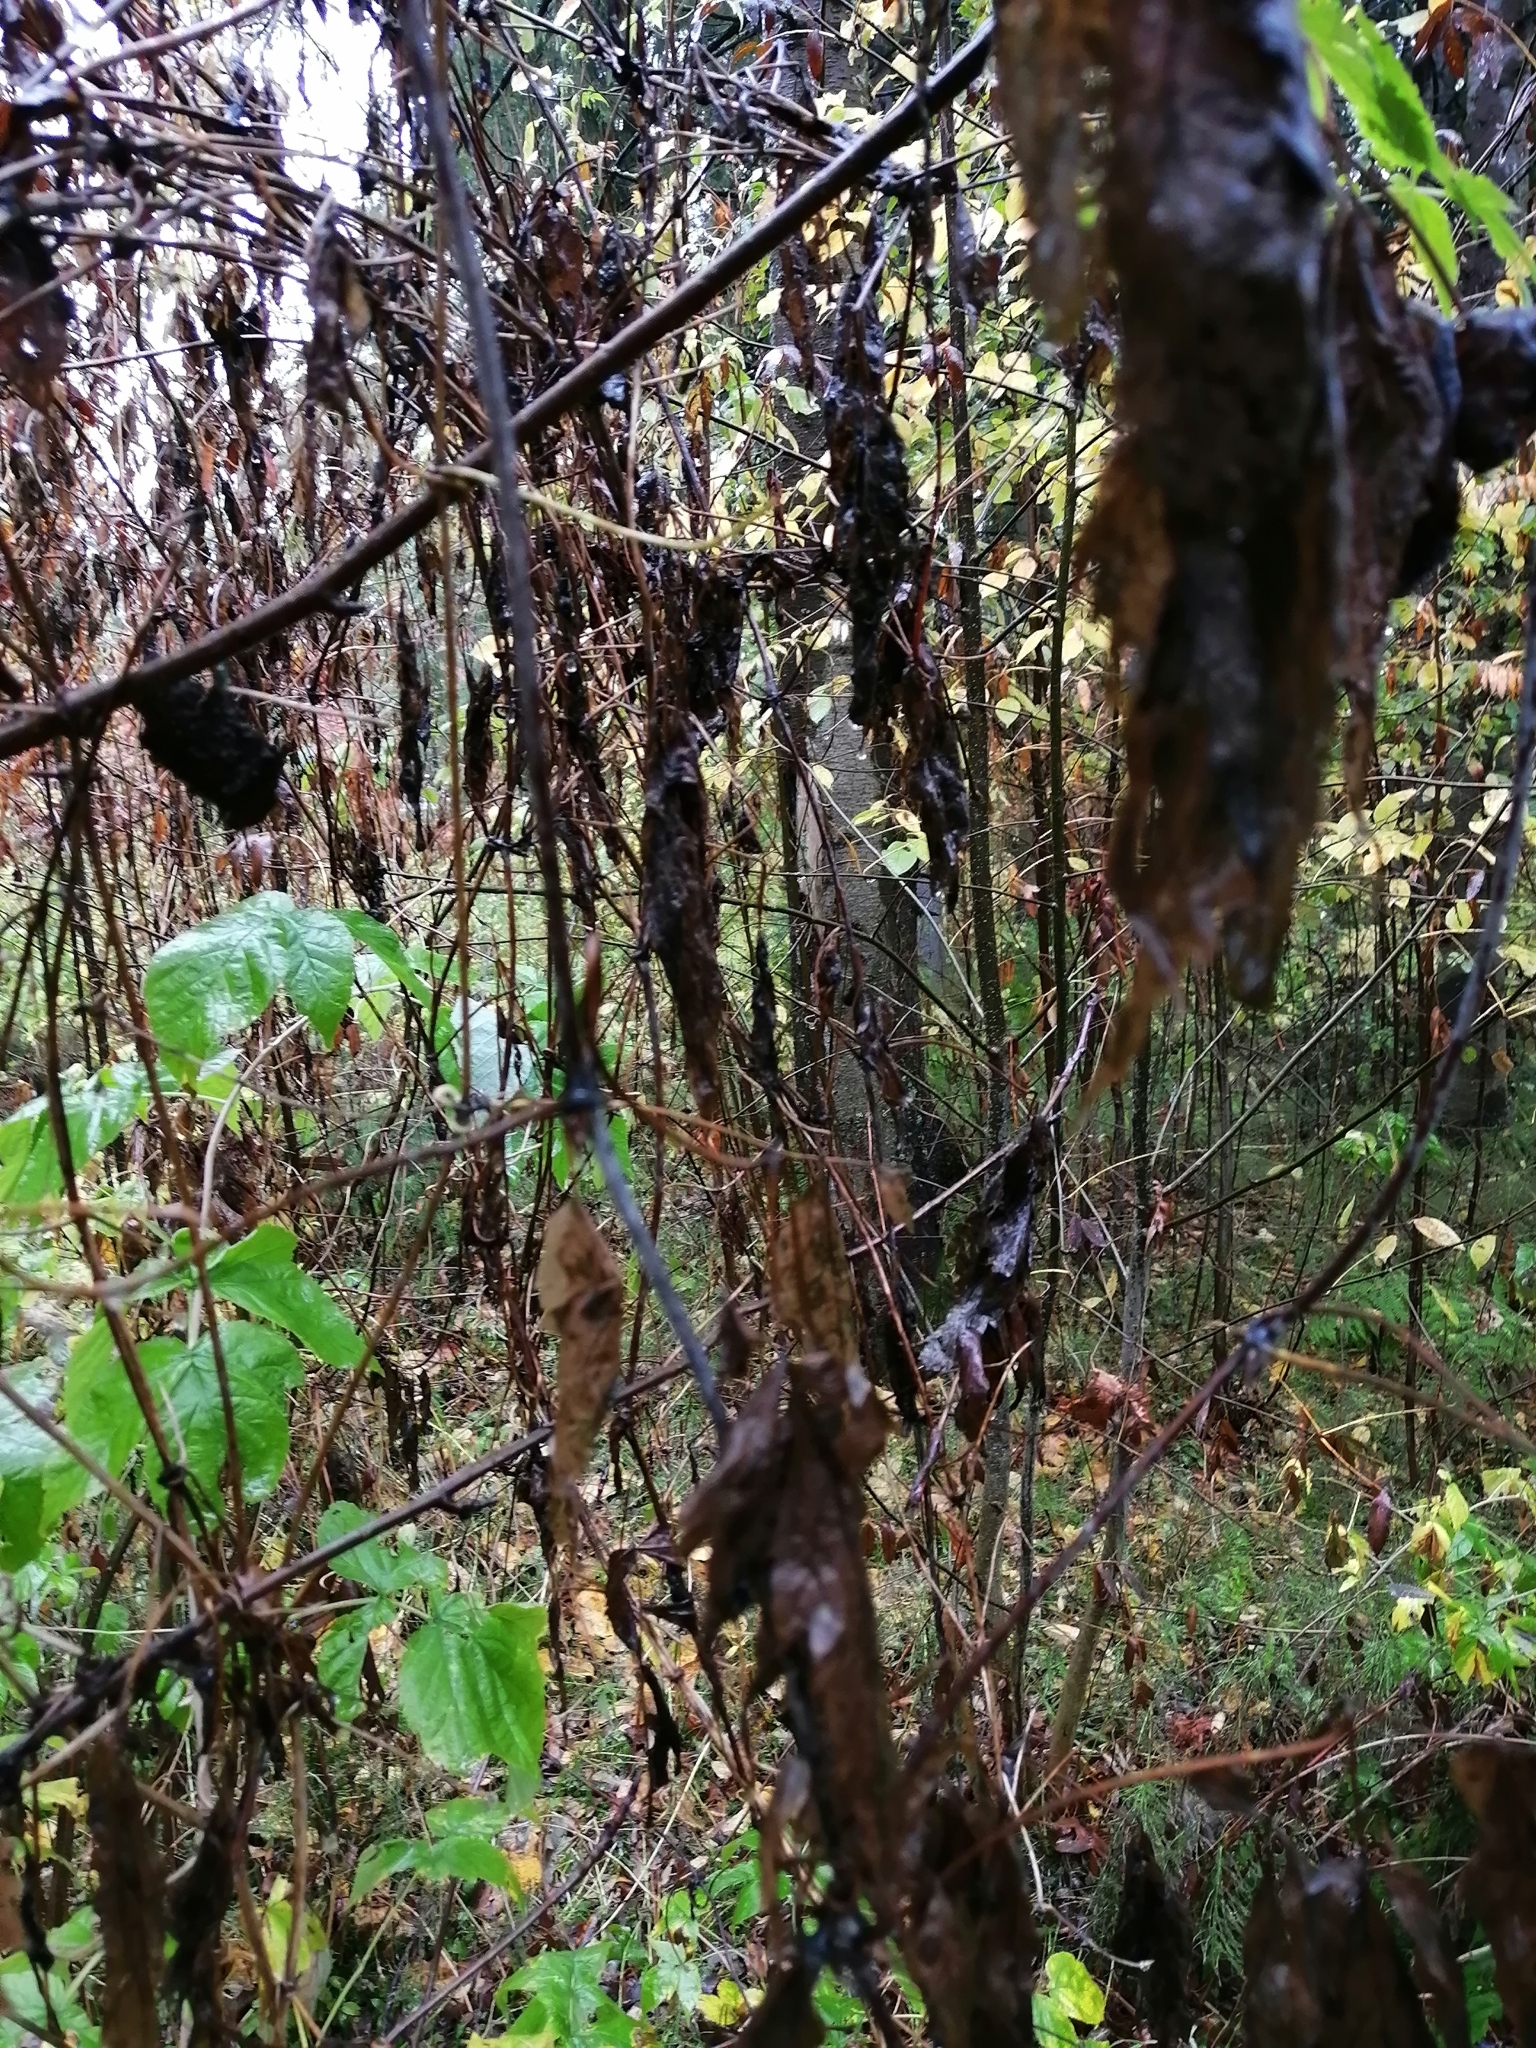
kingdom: Plantae
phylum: Tracheophyta
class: Magnoliopsida
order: Ranunculales
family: Ranunculaceae
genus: Clematis
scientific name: Clematis sibirica
